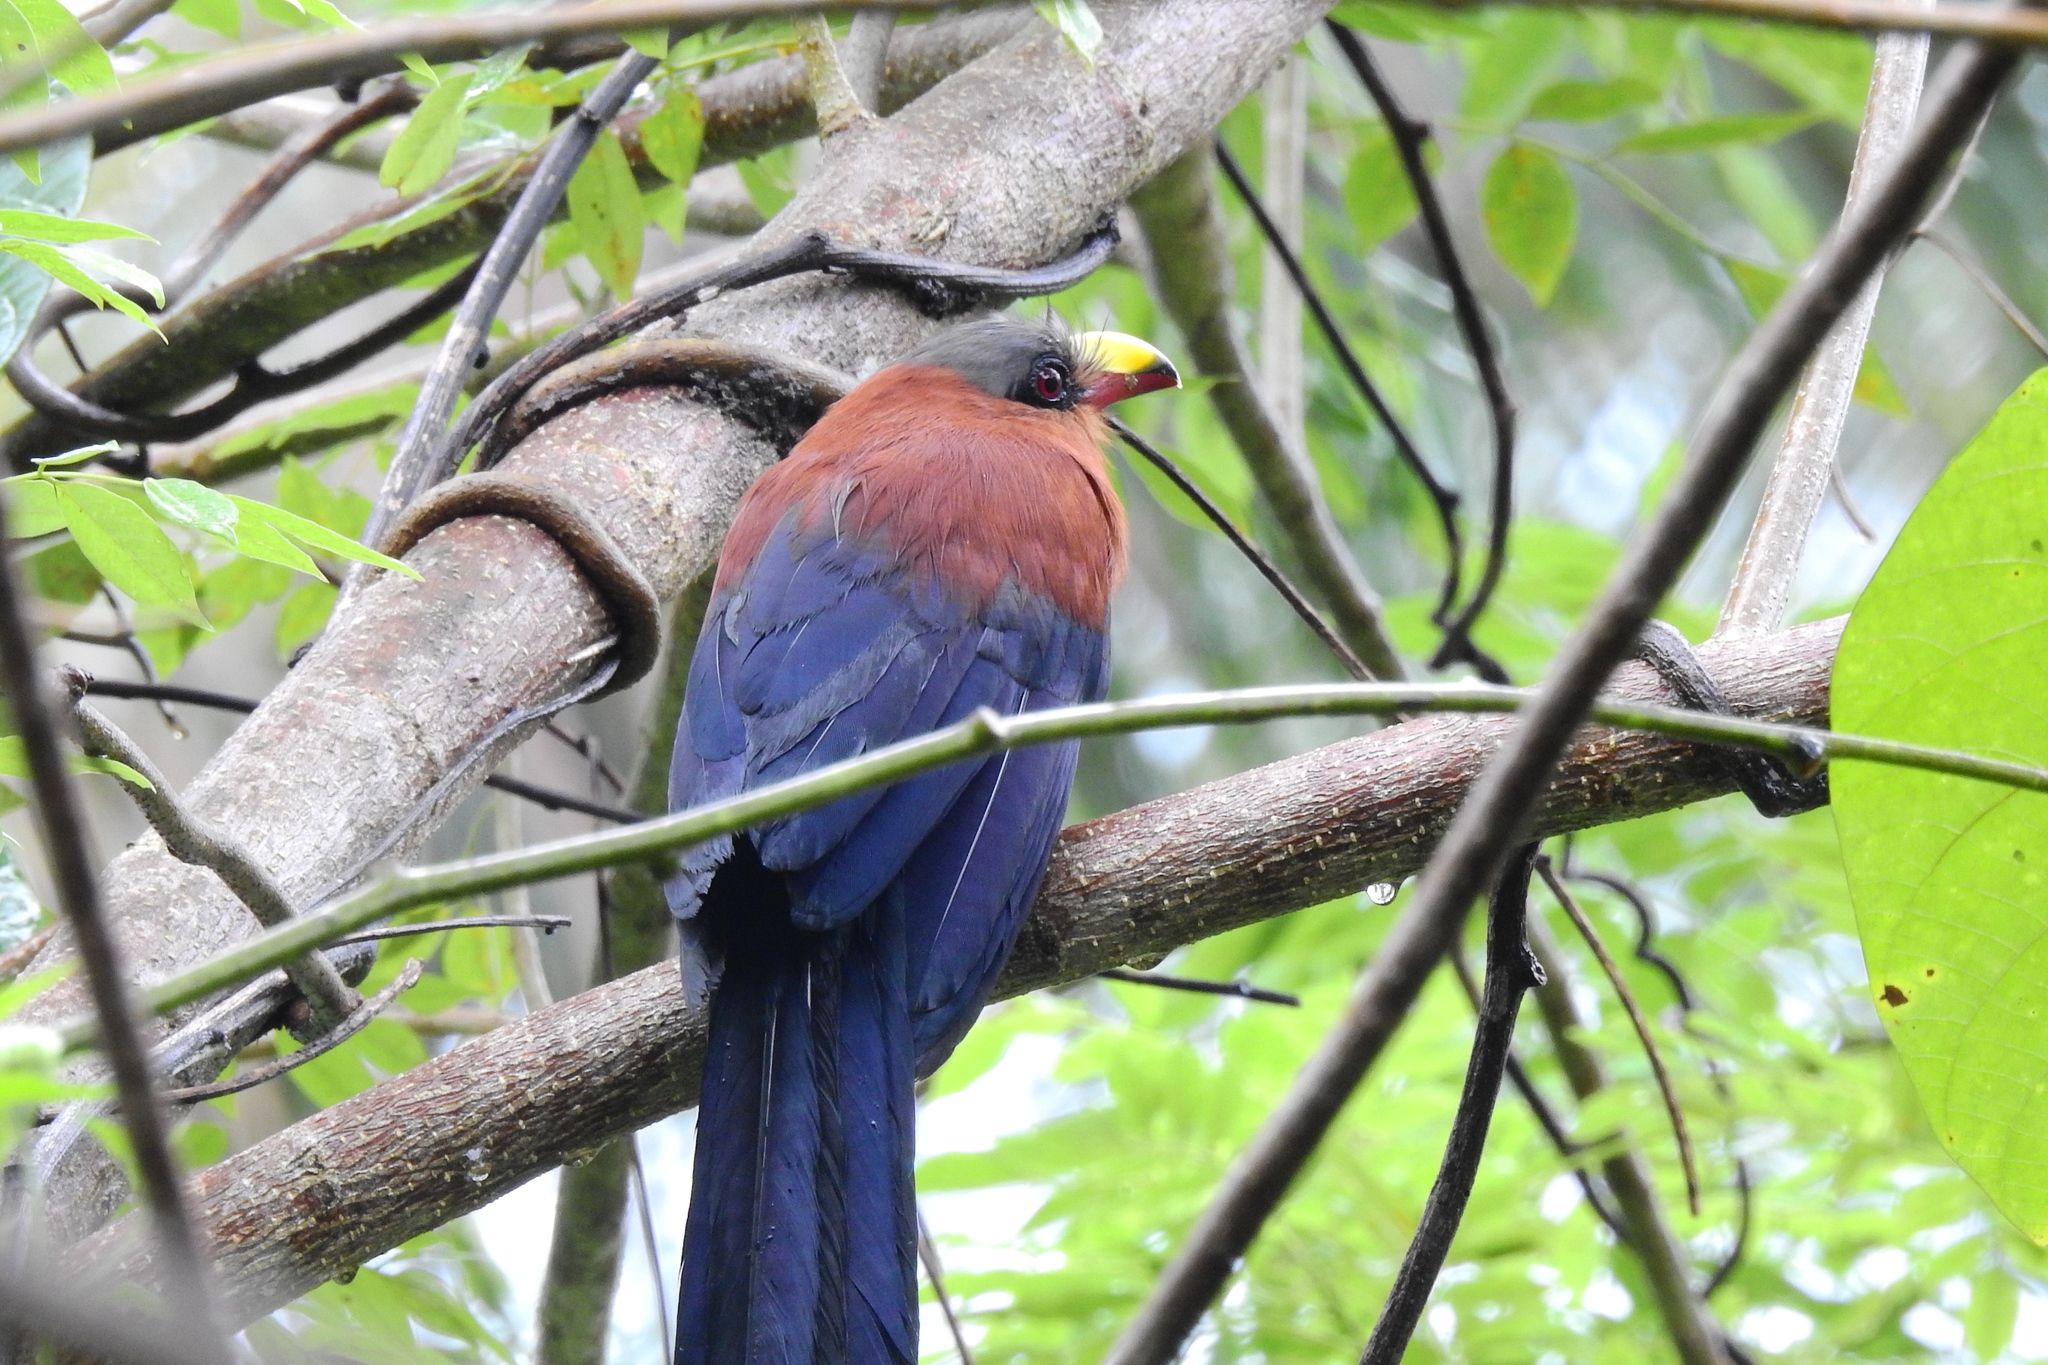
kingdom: Animalia
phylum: Chordata
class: Aves
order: Cuculiformes
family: Cuculidae
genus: Zanclostomus
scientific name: Zanclostomus calyorhynchus
